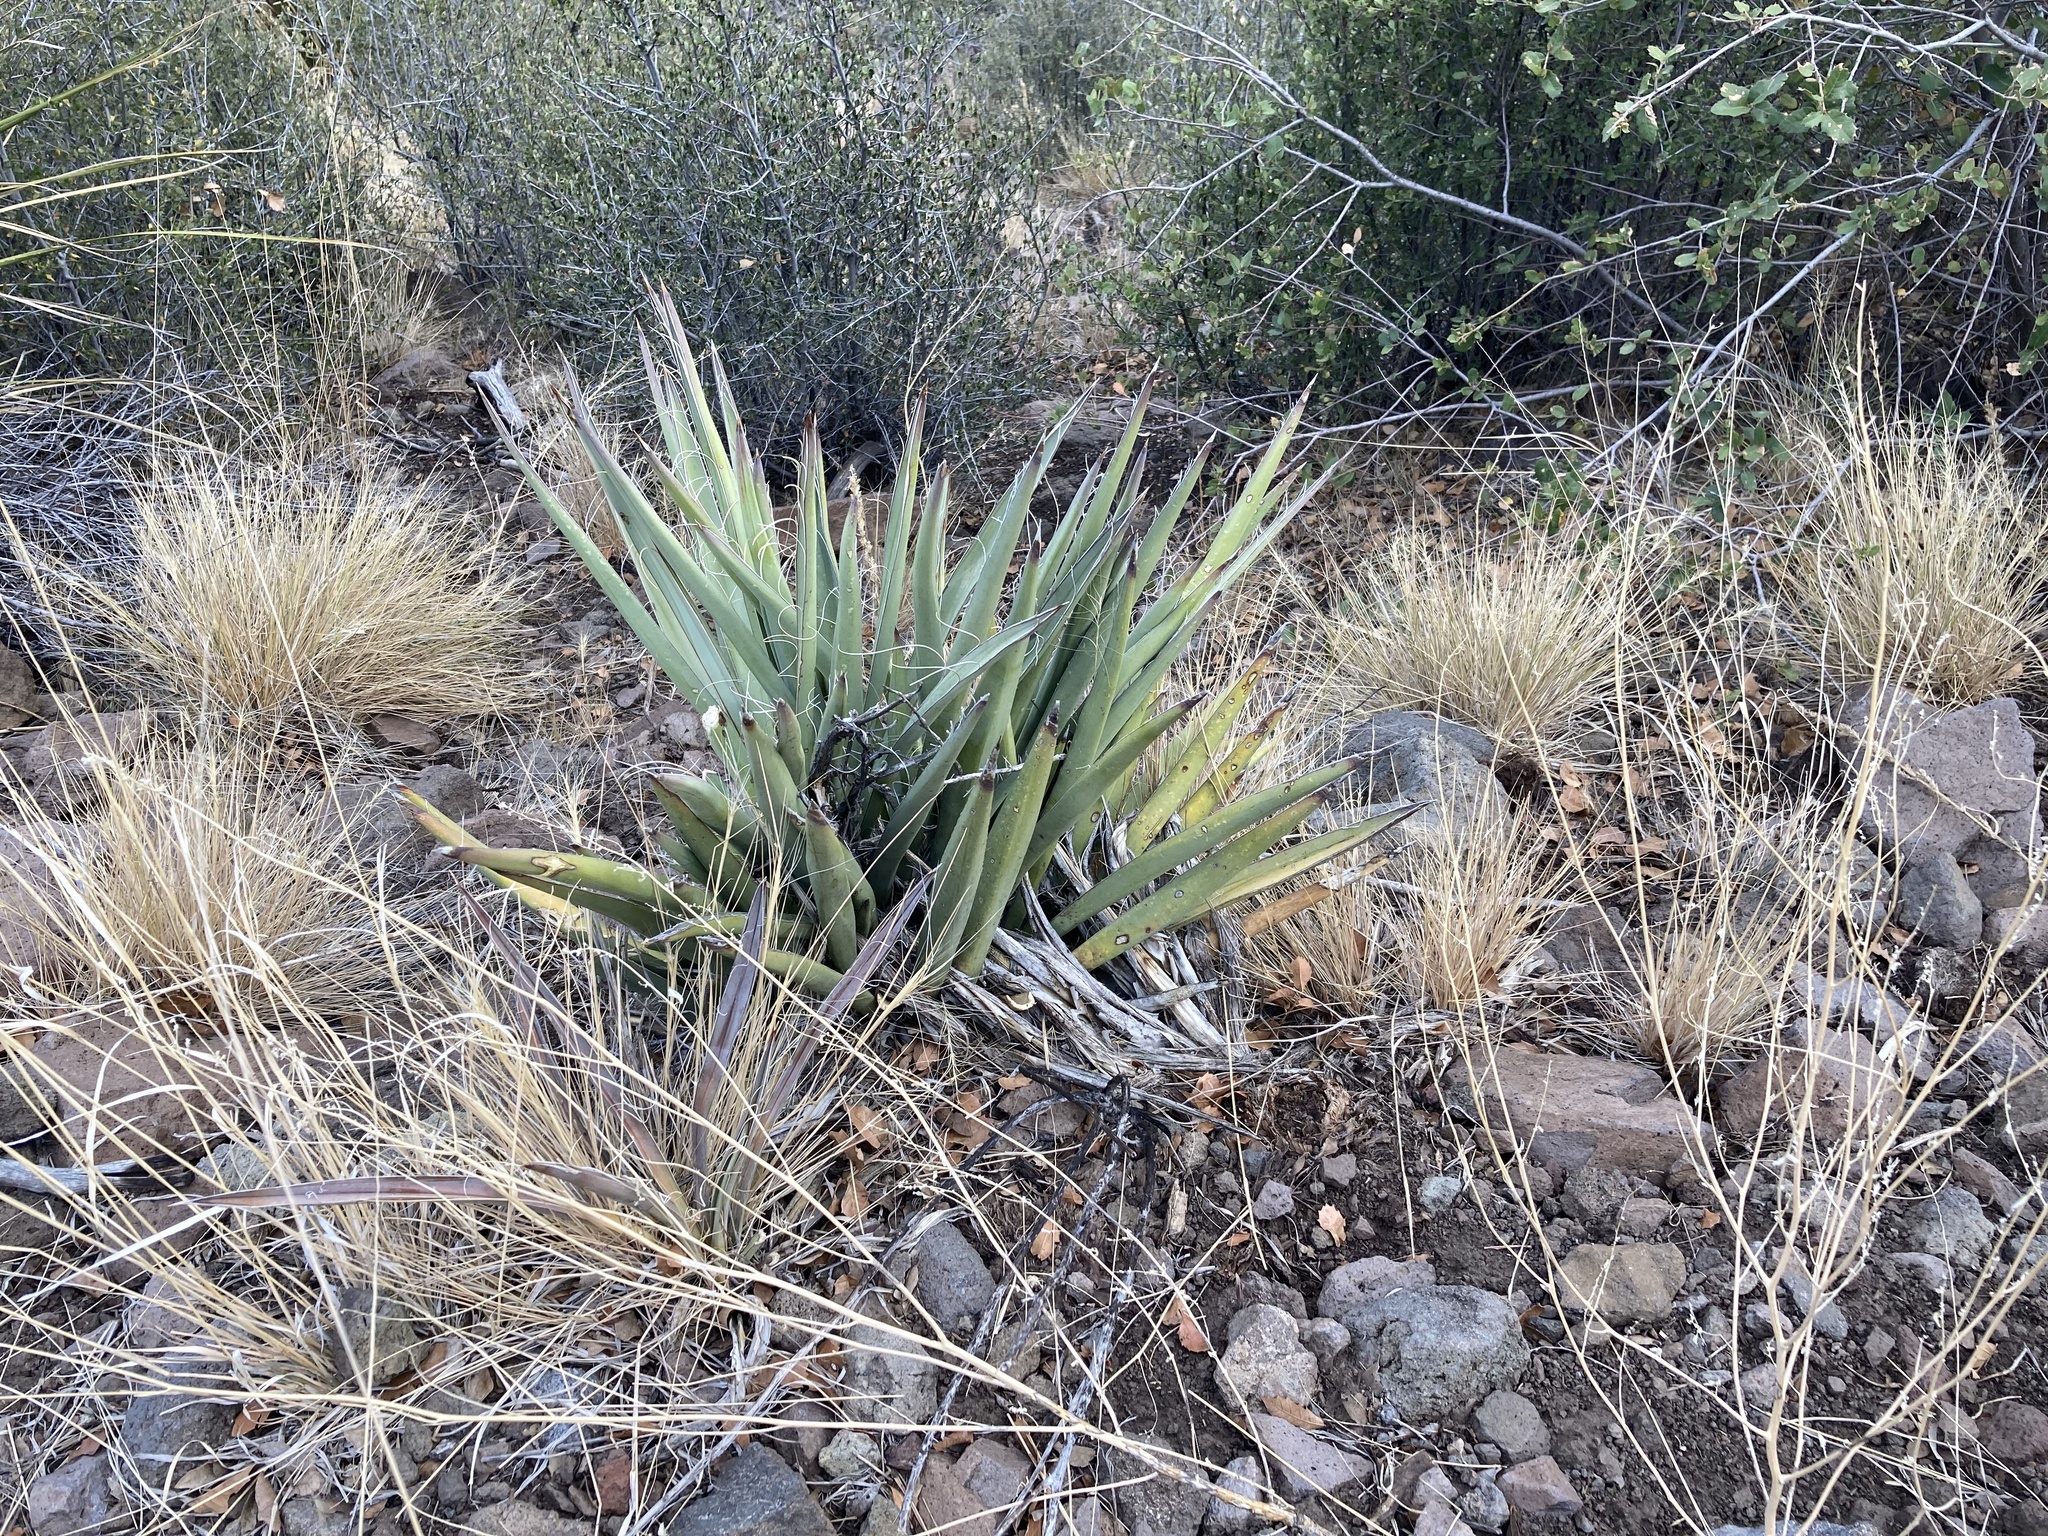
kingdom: Plantae
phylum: Tracheophyta
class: Liliopsida
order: Asparagales
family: Asparagaceae
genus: Yucca
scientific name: Yucca baccata
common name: Banana yucca
